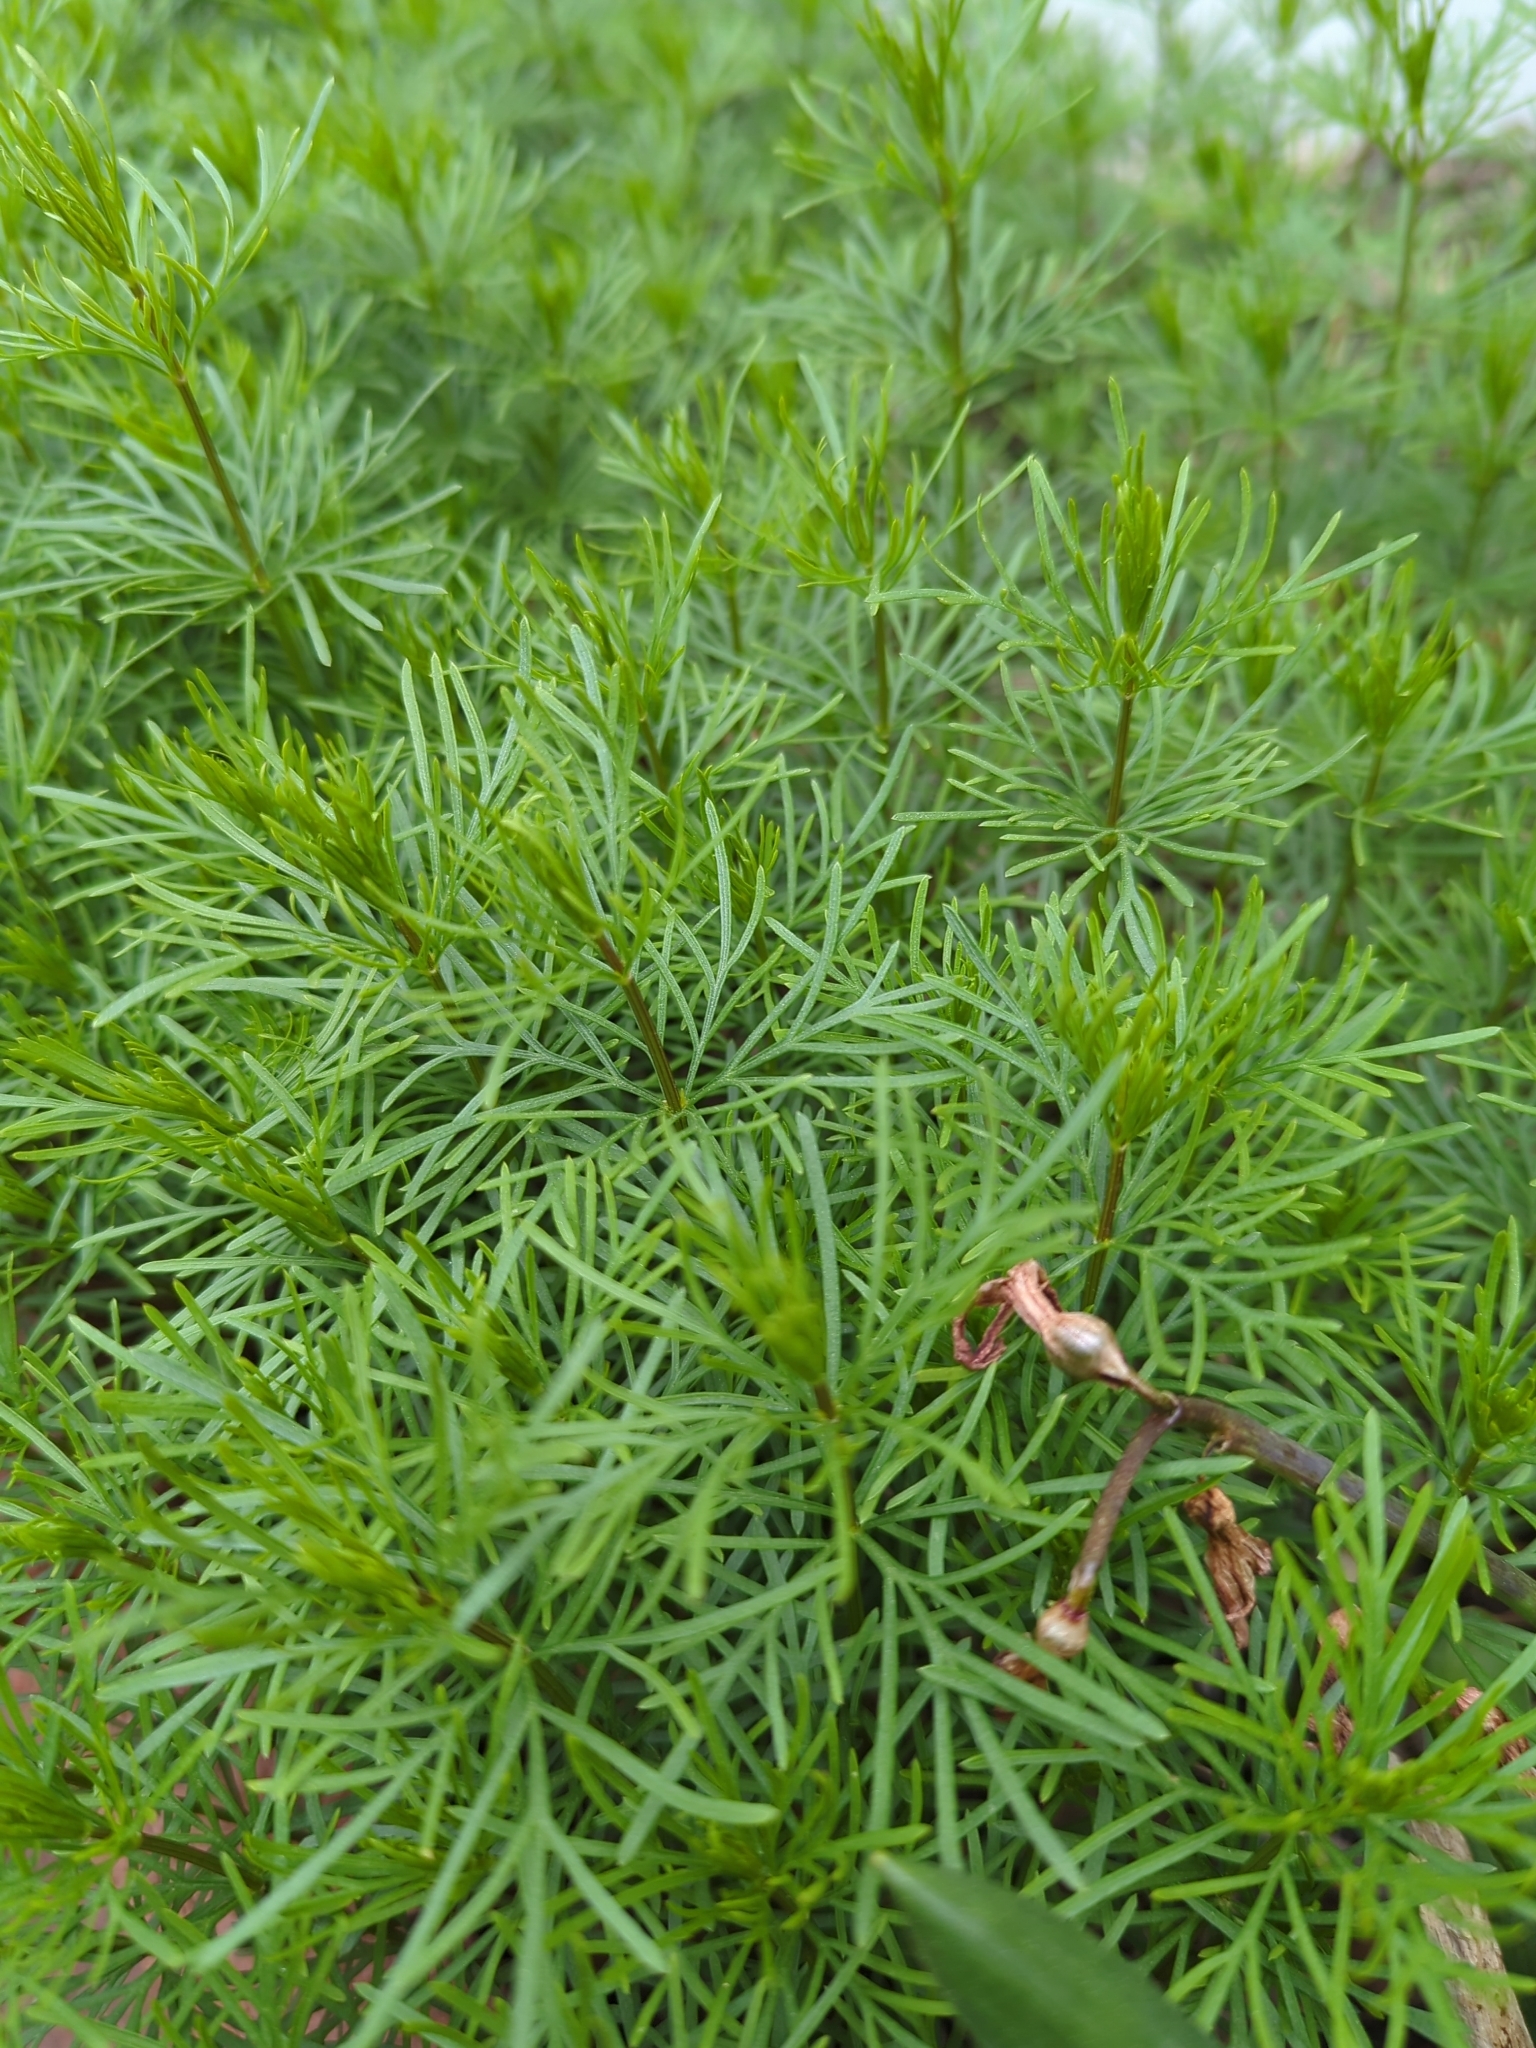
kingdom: Plantae
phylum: Tracheophyta
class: Magnoliopsida
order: Asterales
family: Asteraceae
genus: Coreopsis
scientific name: Coreopsis verticillata
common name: Whorled tickseed
